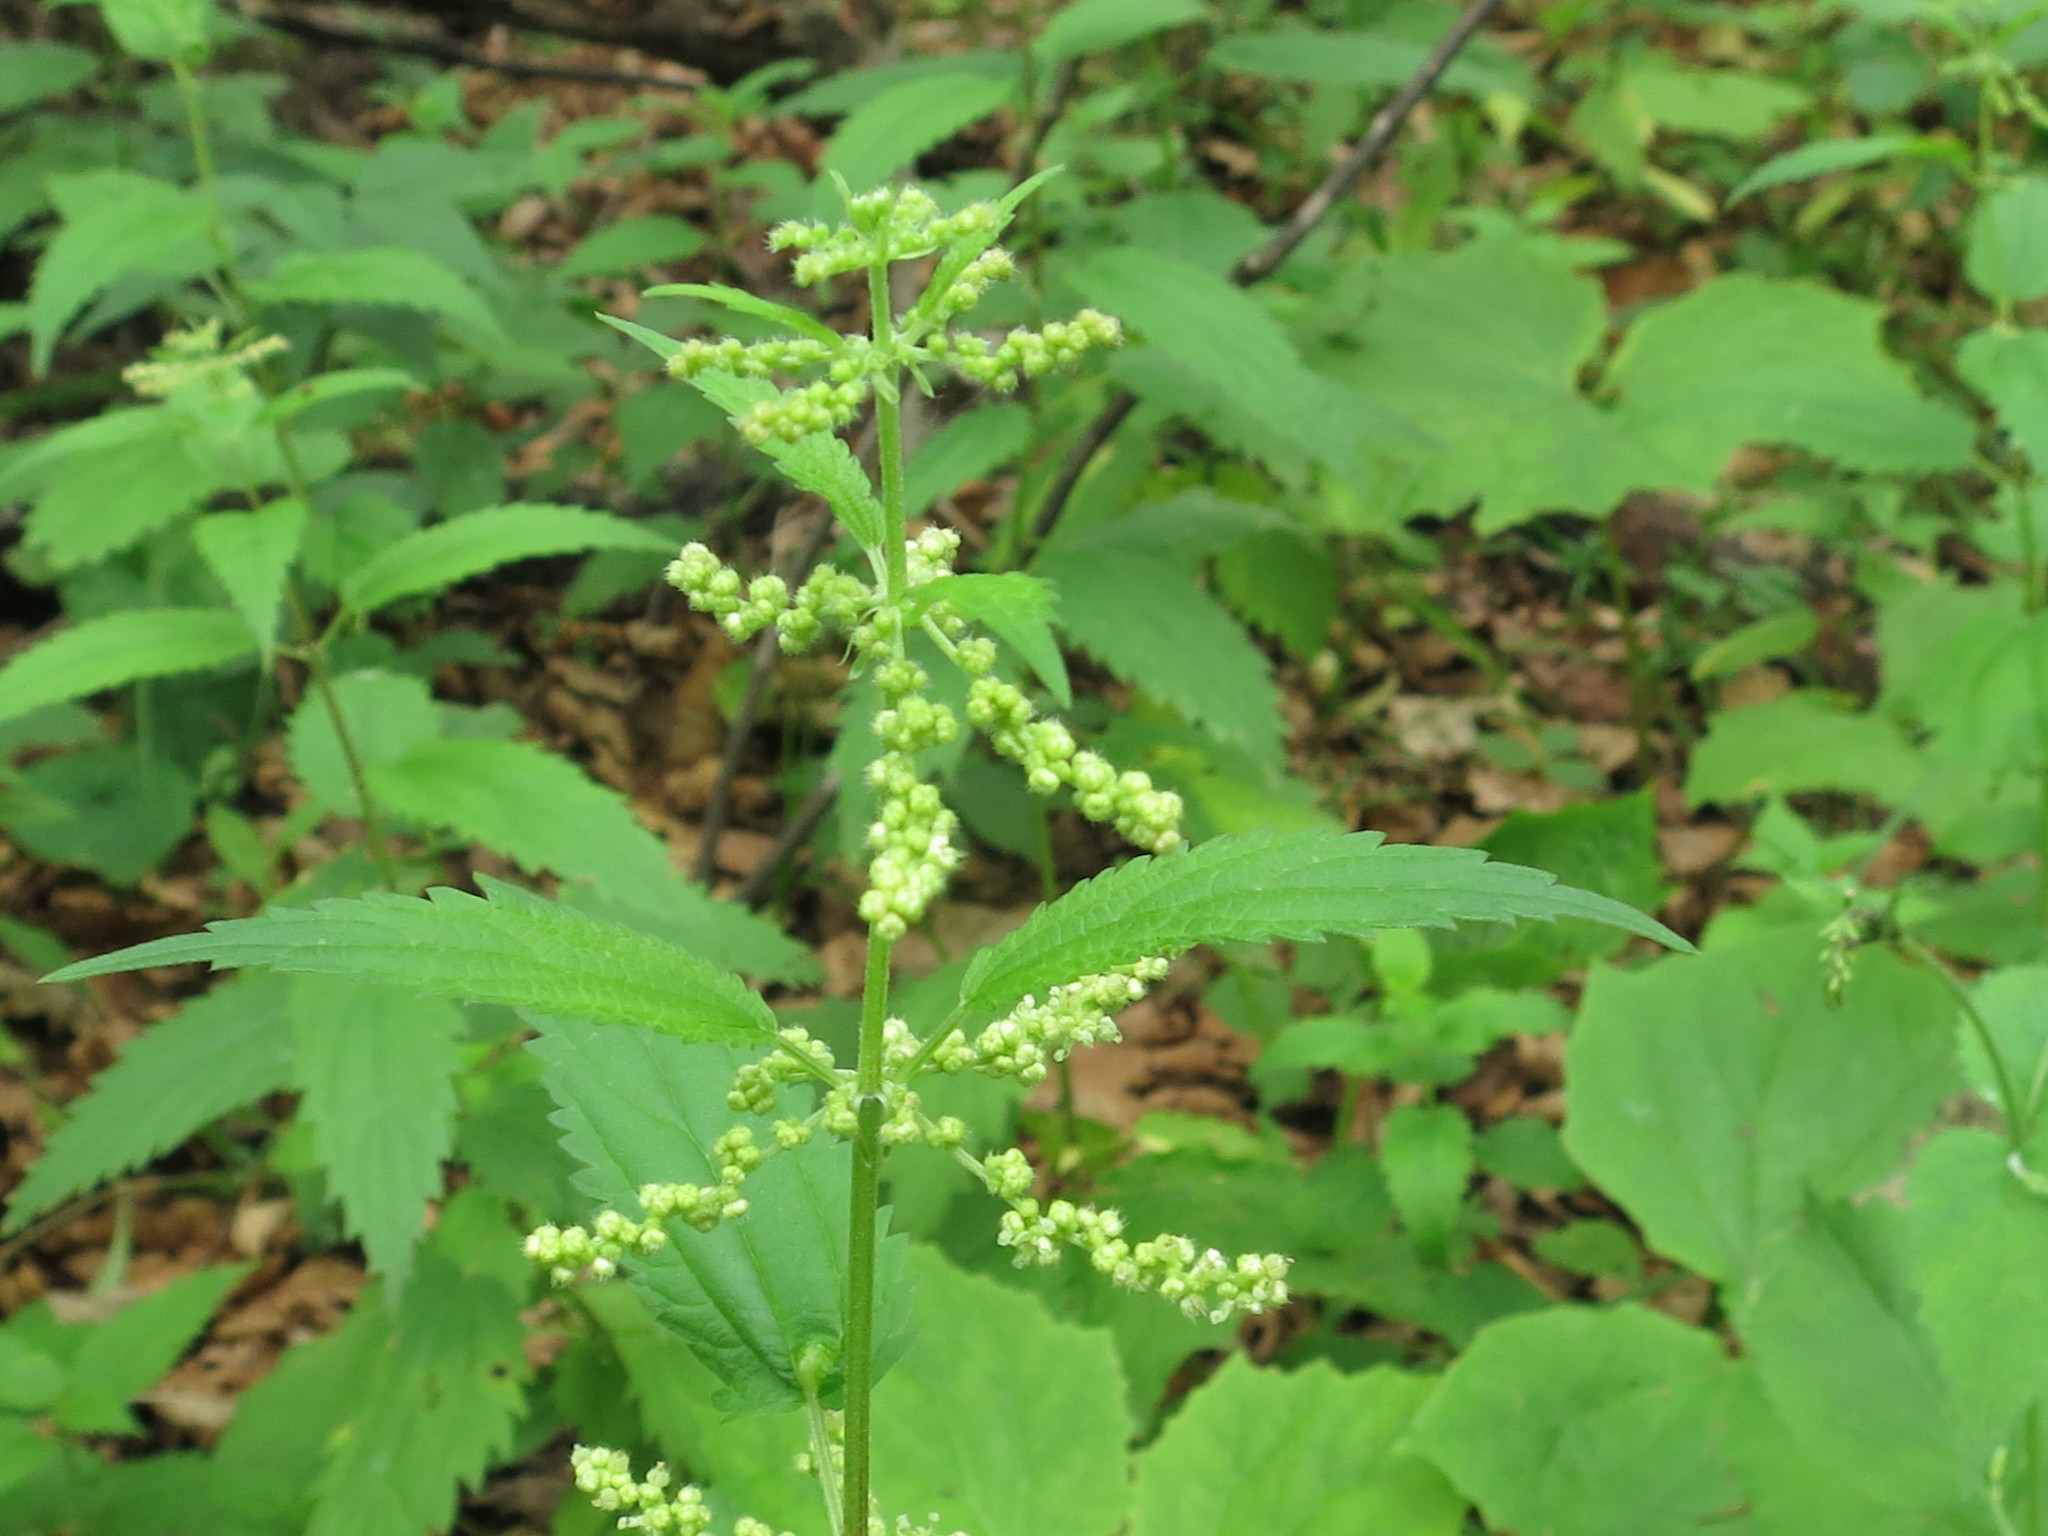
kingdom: Plantae
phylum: Tracheophyta
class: Magnoliopsida
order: Rosales
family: Urticaceae
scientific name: Urticaceae
